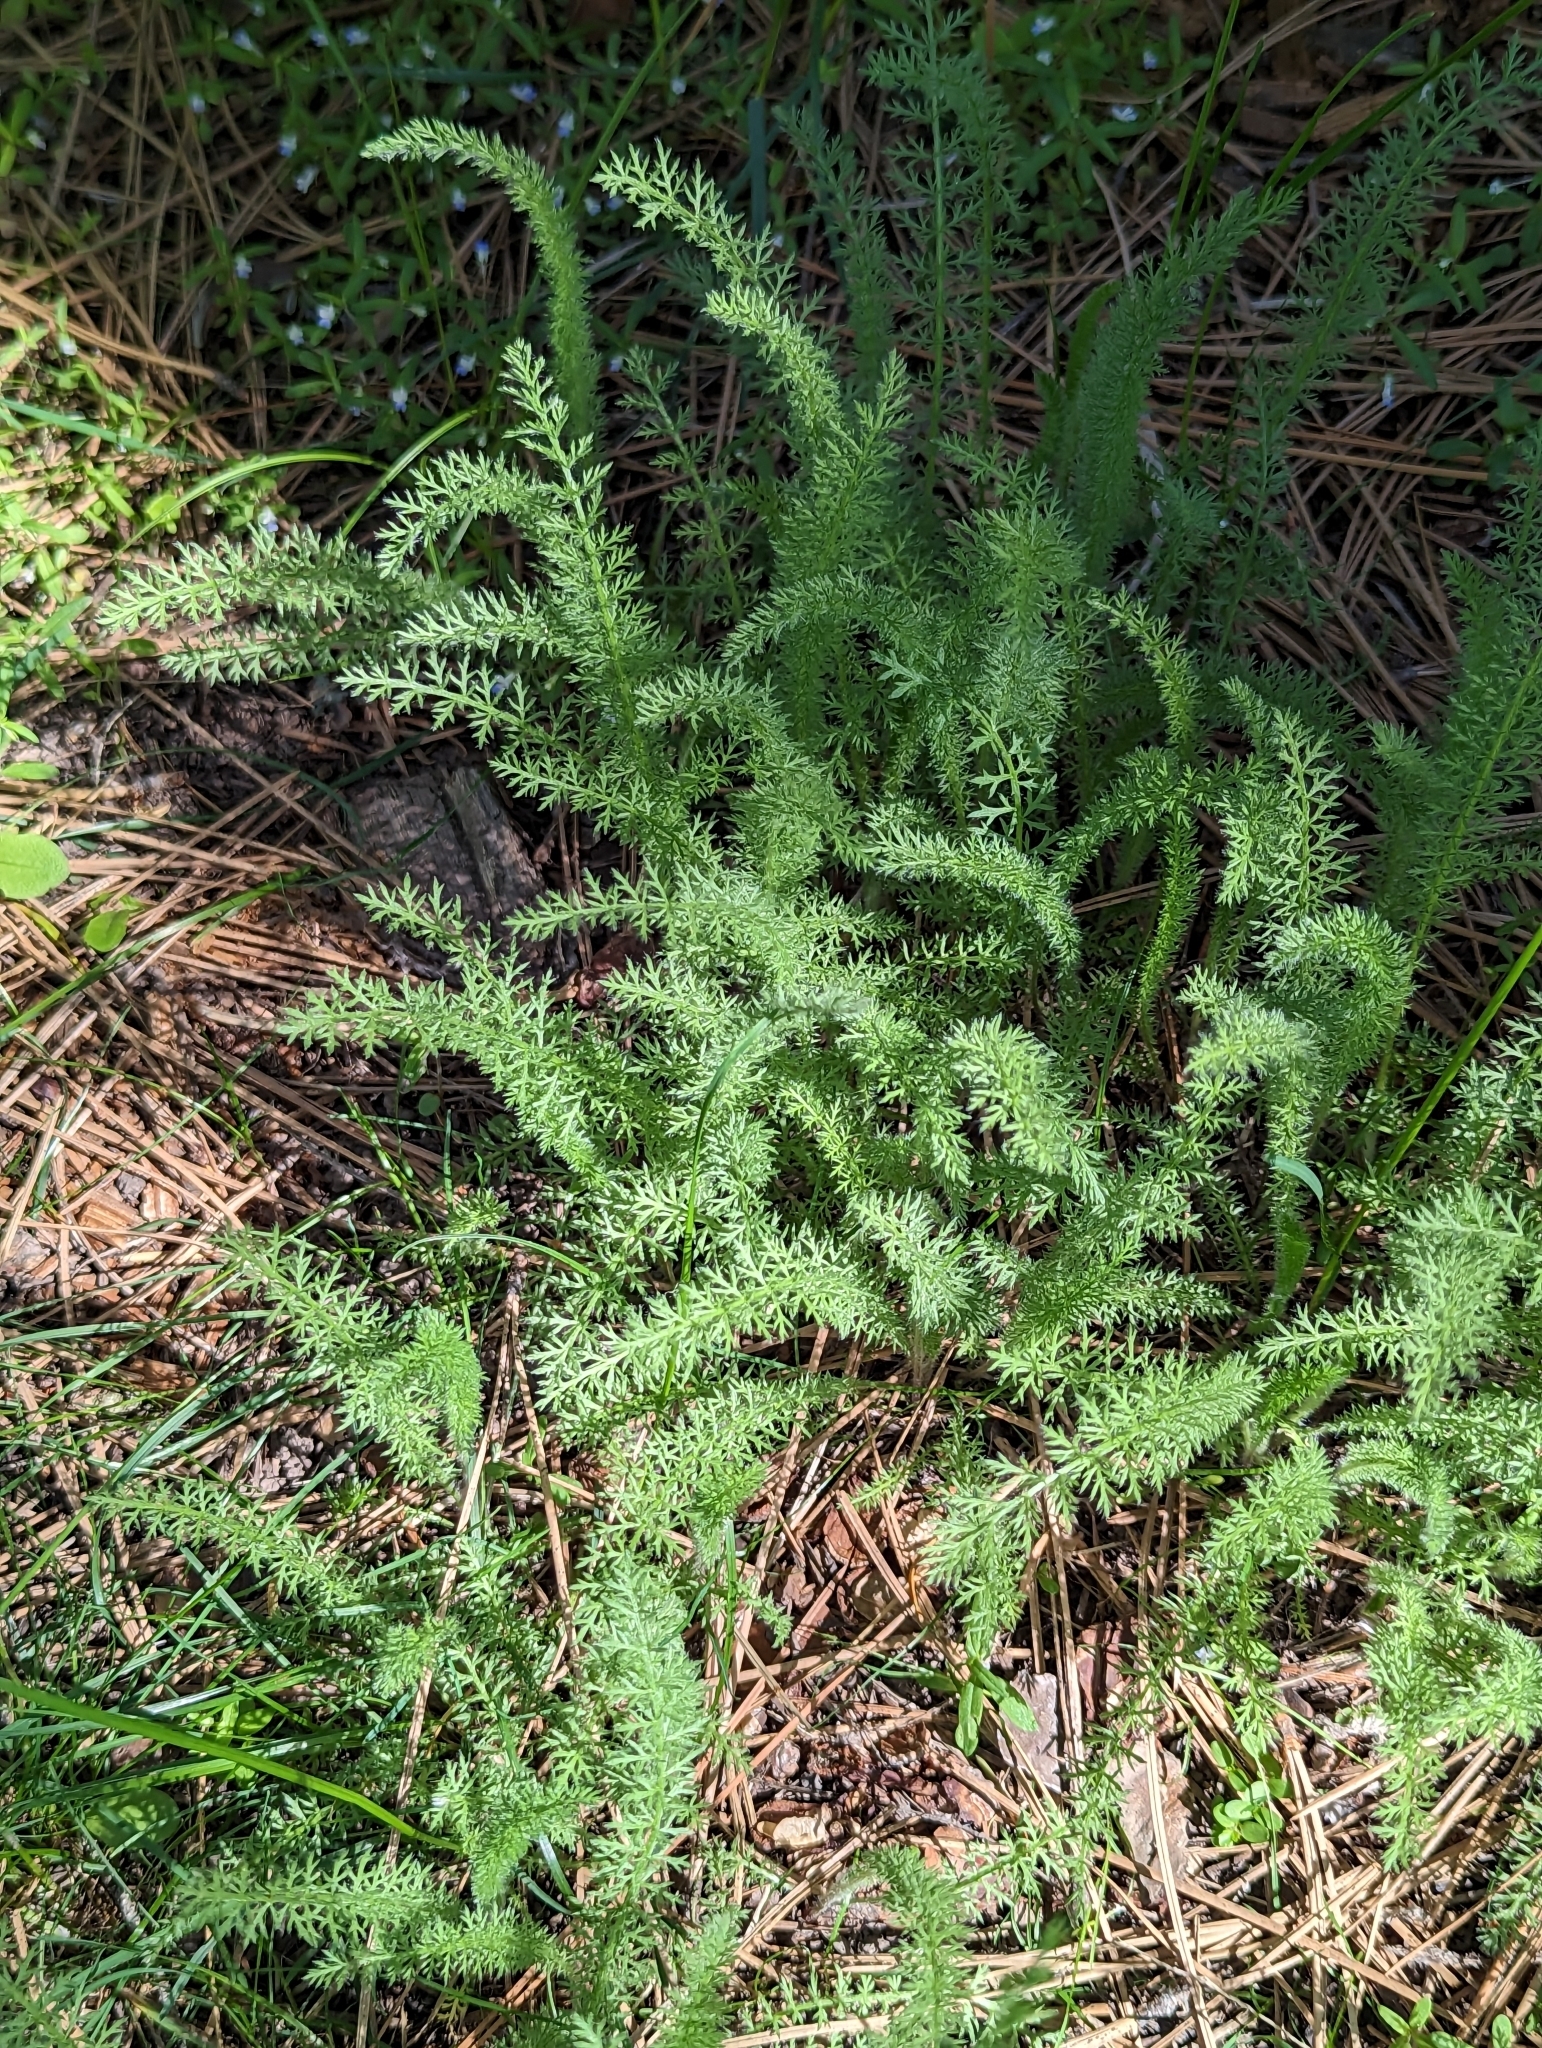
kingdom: Plantae
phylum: Tracheophyta
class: Magnoliopsida
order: Asterales
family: Asteraceae
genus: Achillea
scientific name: Achillea millefolium
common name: Yarrow
